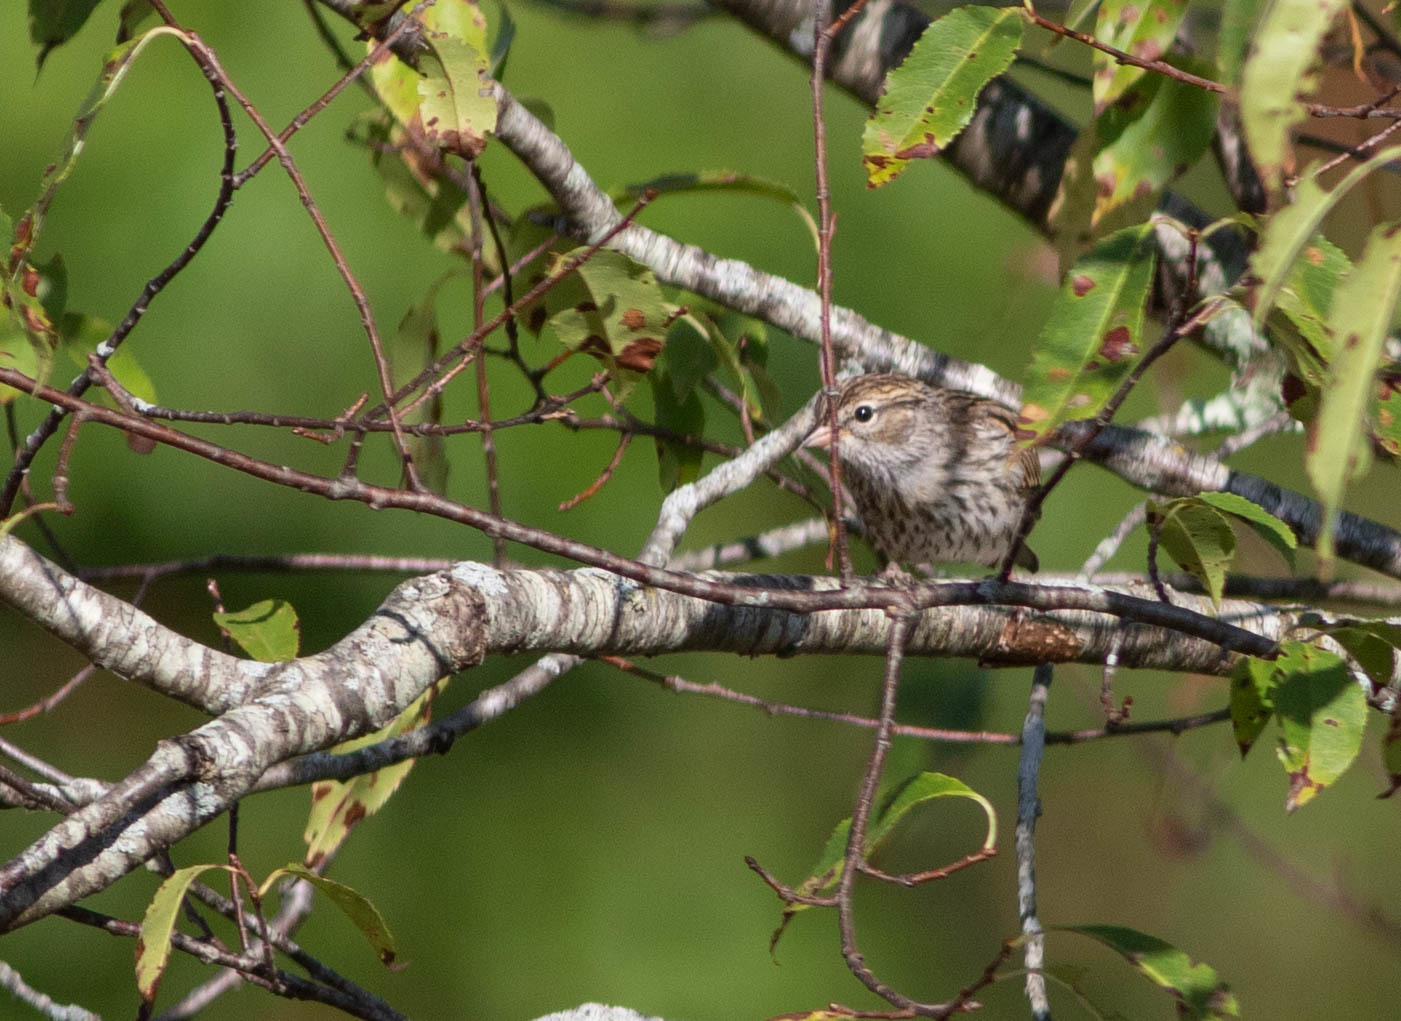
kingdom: Animalia
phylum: Chordata
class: Aves
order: Passeriformes
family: Passerellidae
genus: Spizella
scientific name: Spizella passerina
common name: Chipping sparrow
